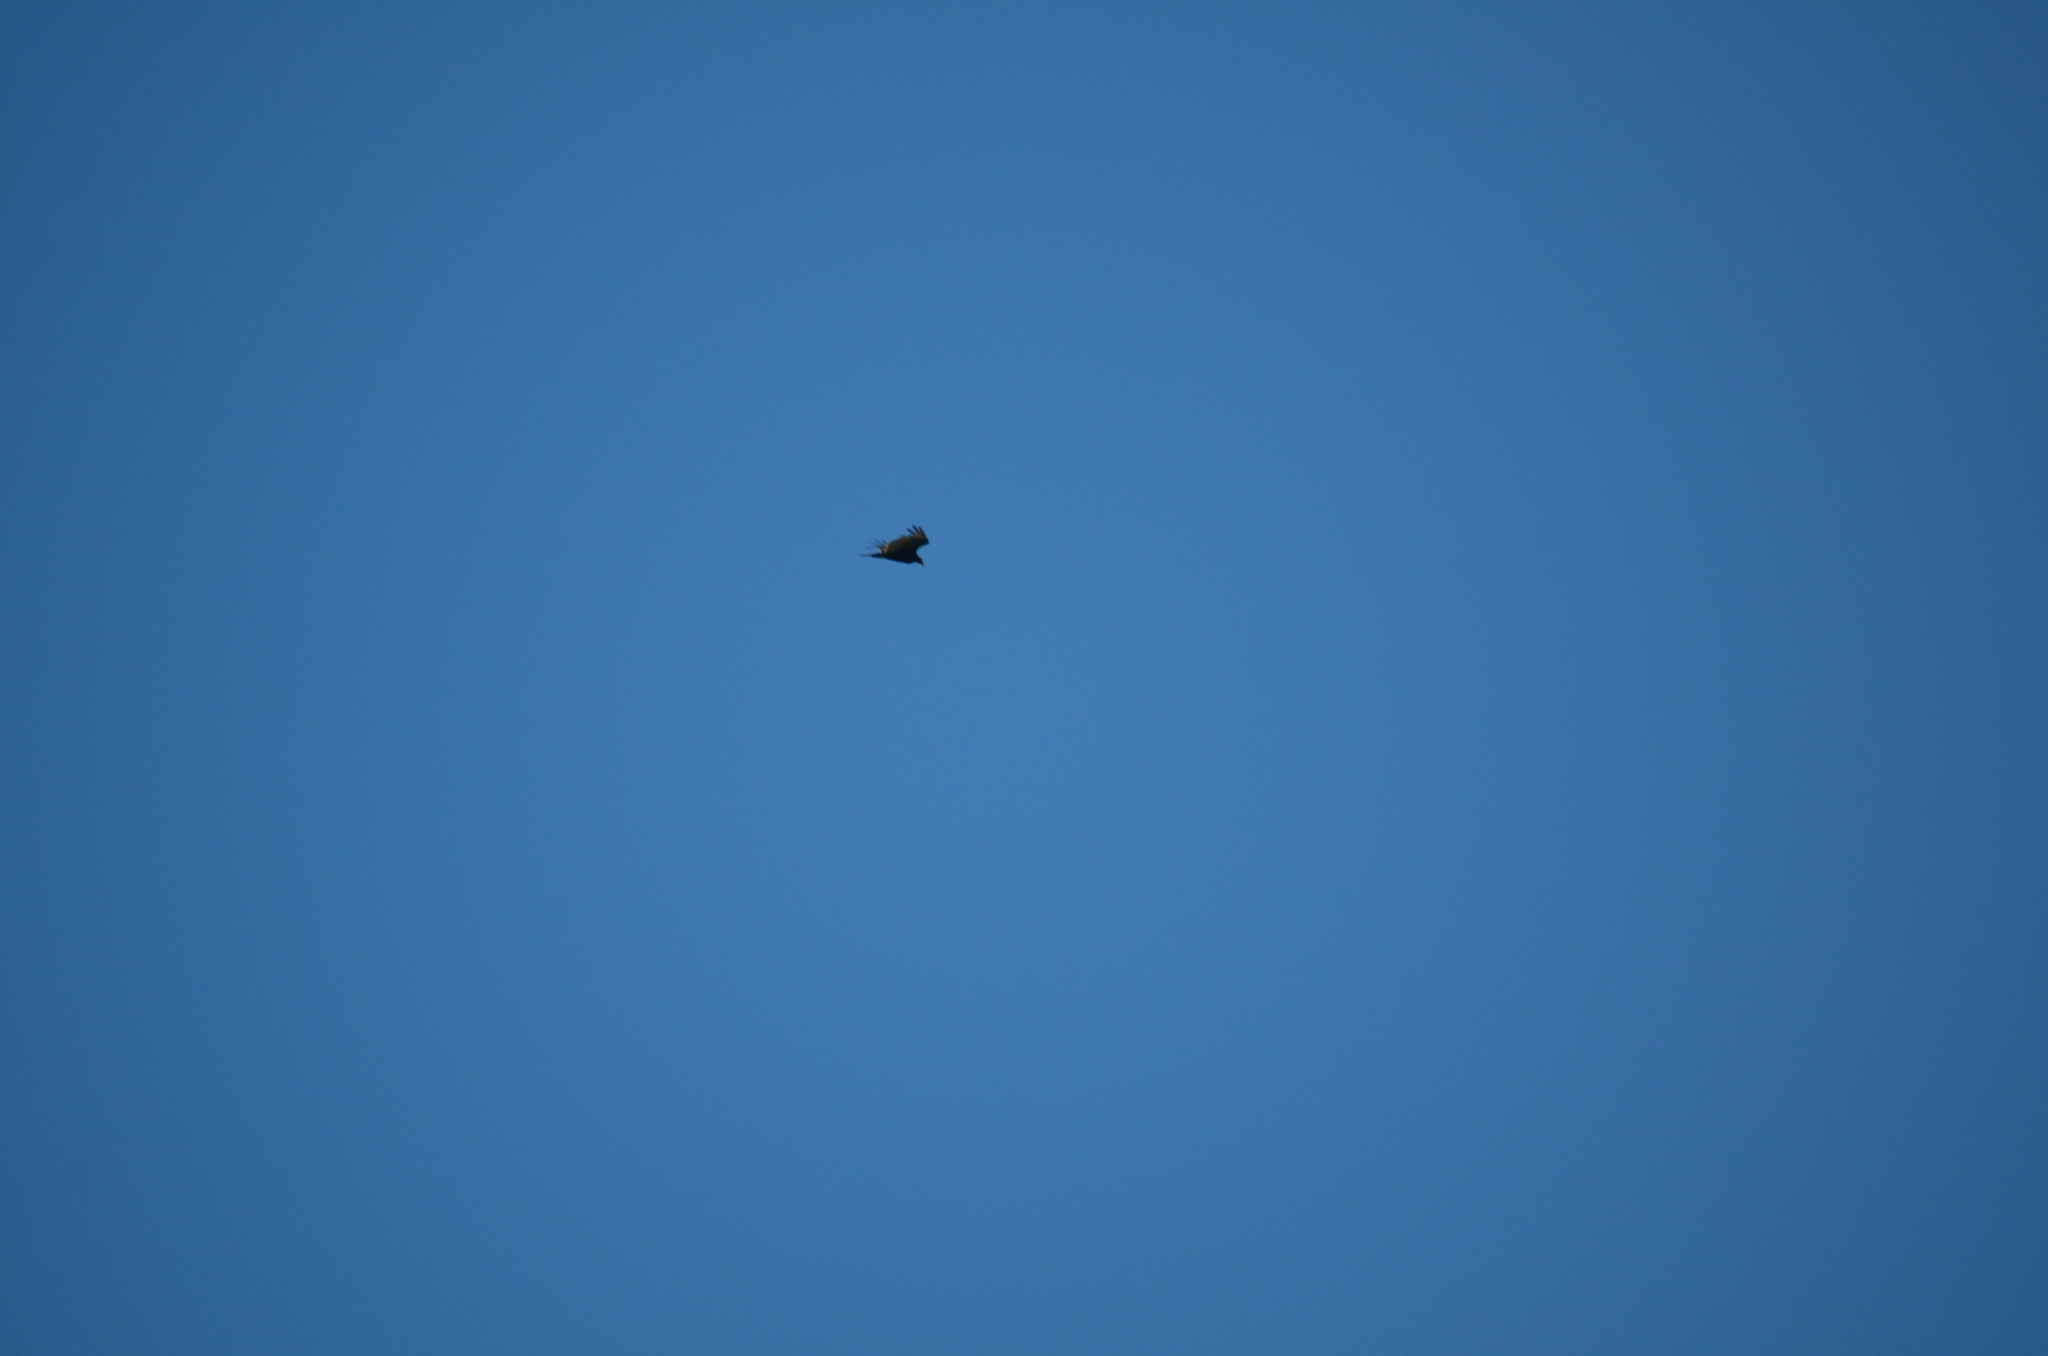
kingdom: Animalia
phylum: Chordata
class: Aves
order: Accipitriformes
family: Cathartidae
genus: Cathartes
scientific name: Cathartes aura
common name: Turkey vulture
